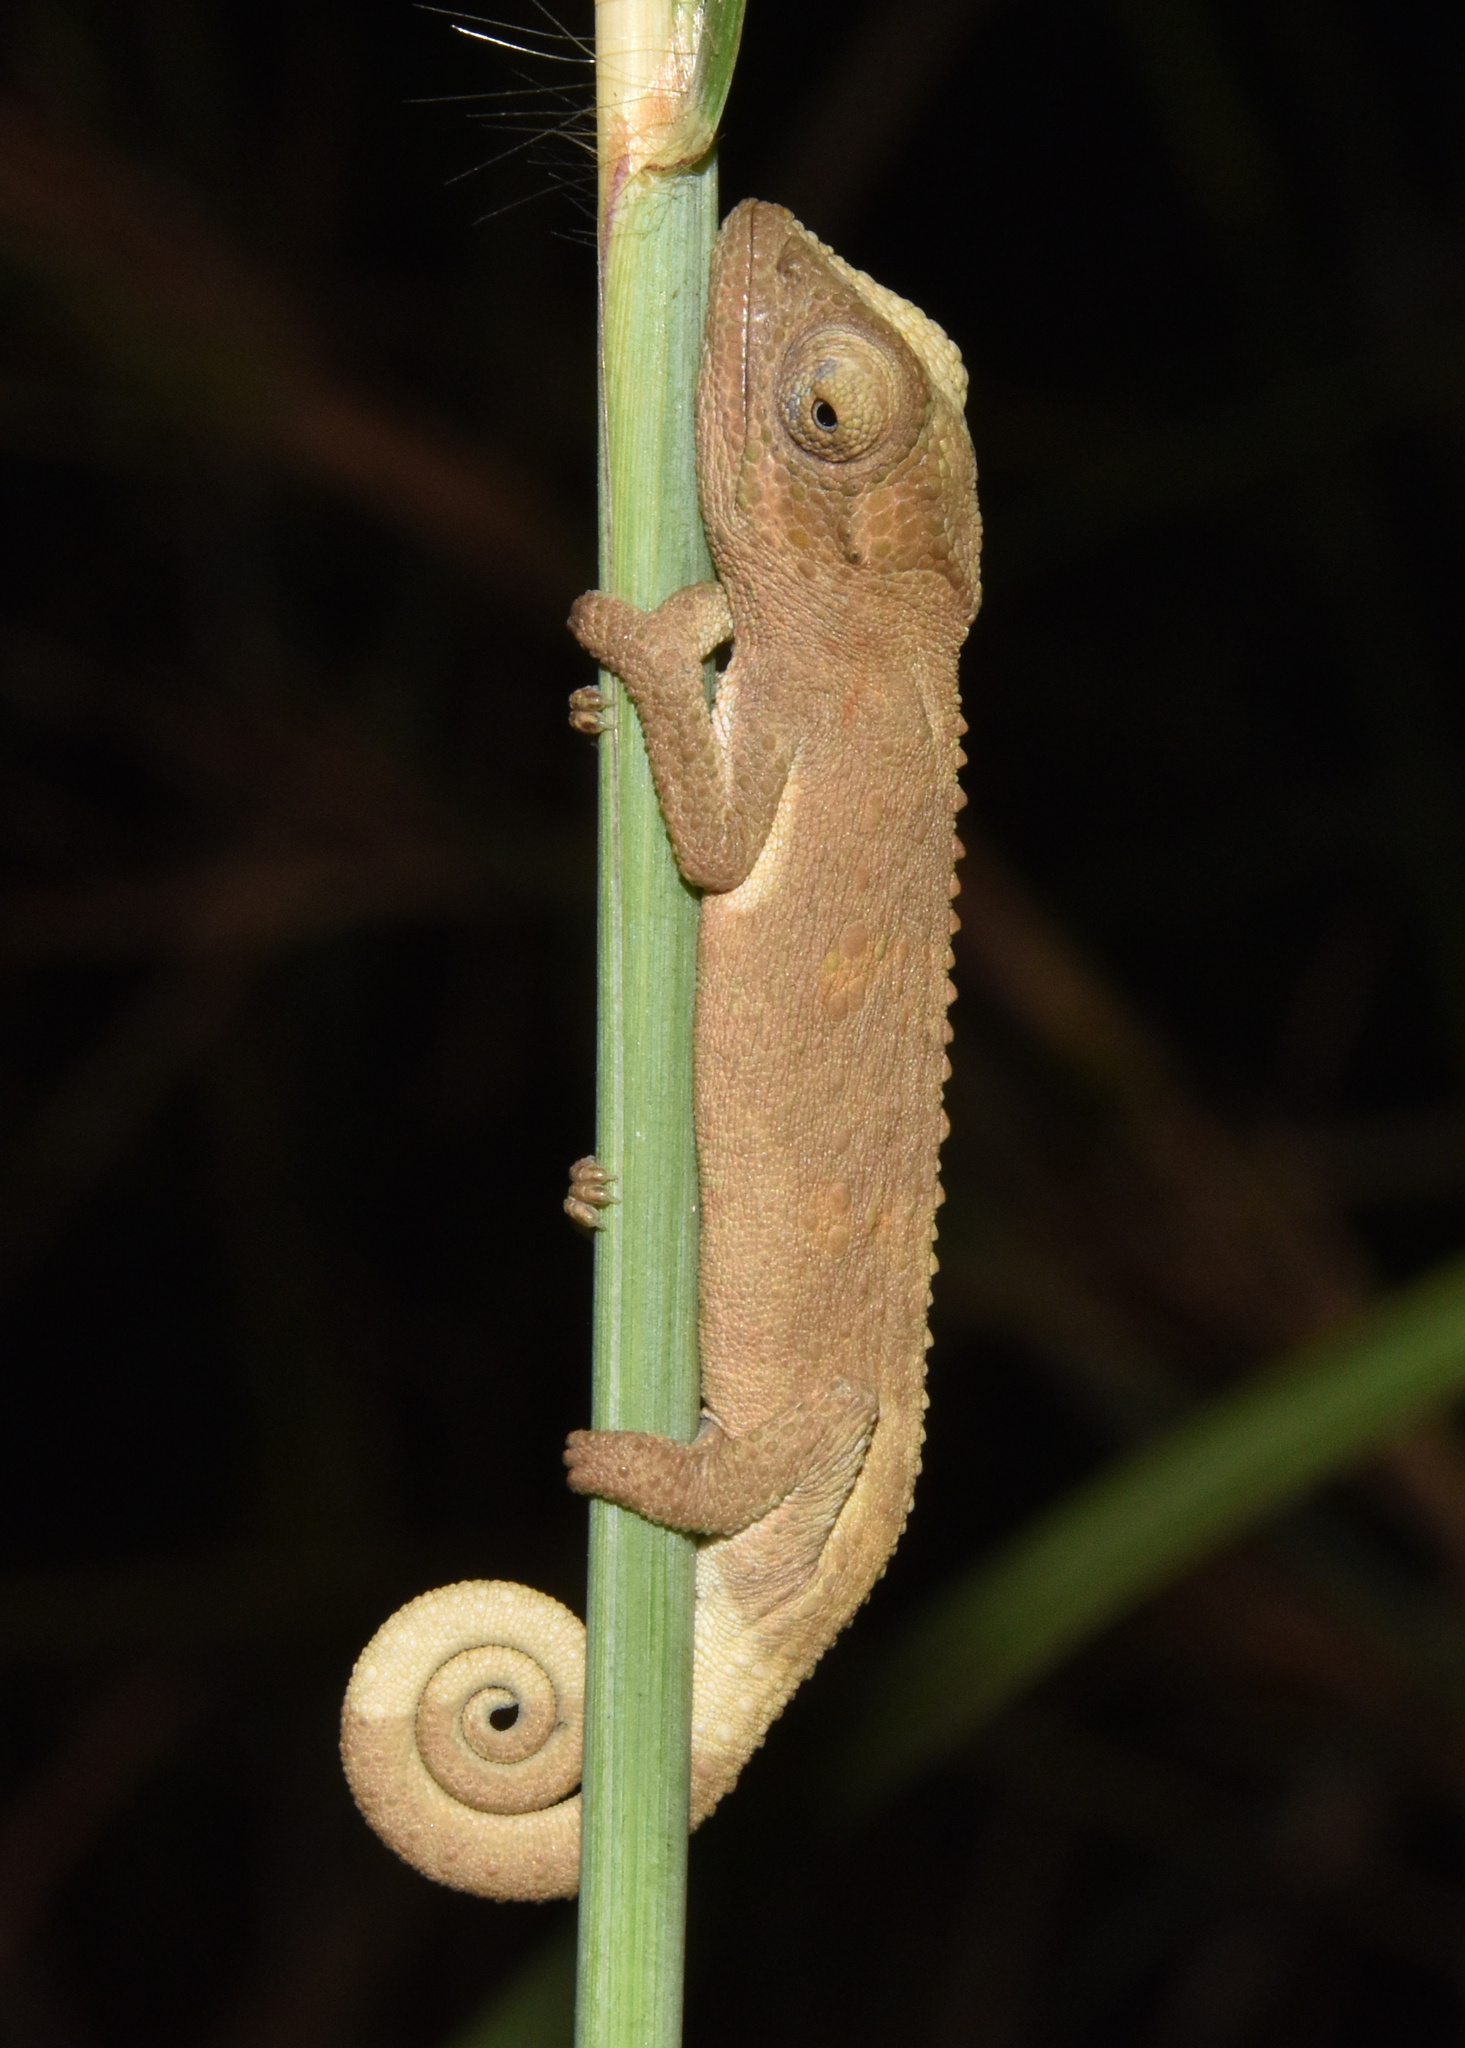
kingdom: Animalia
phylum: Chordata
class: Squamata
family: Chamaeleonidae
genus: Bradypodion
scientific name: Bradypodion melanocephalum
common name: Black-headed dwarf chameleon
